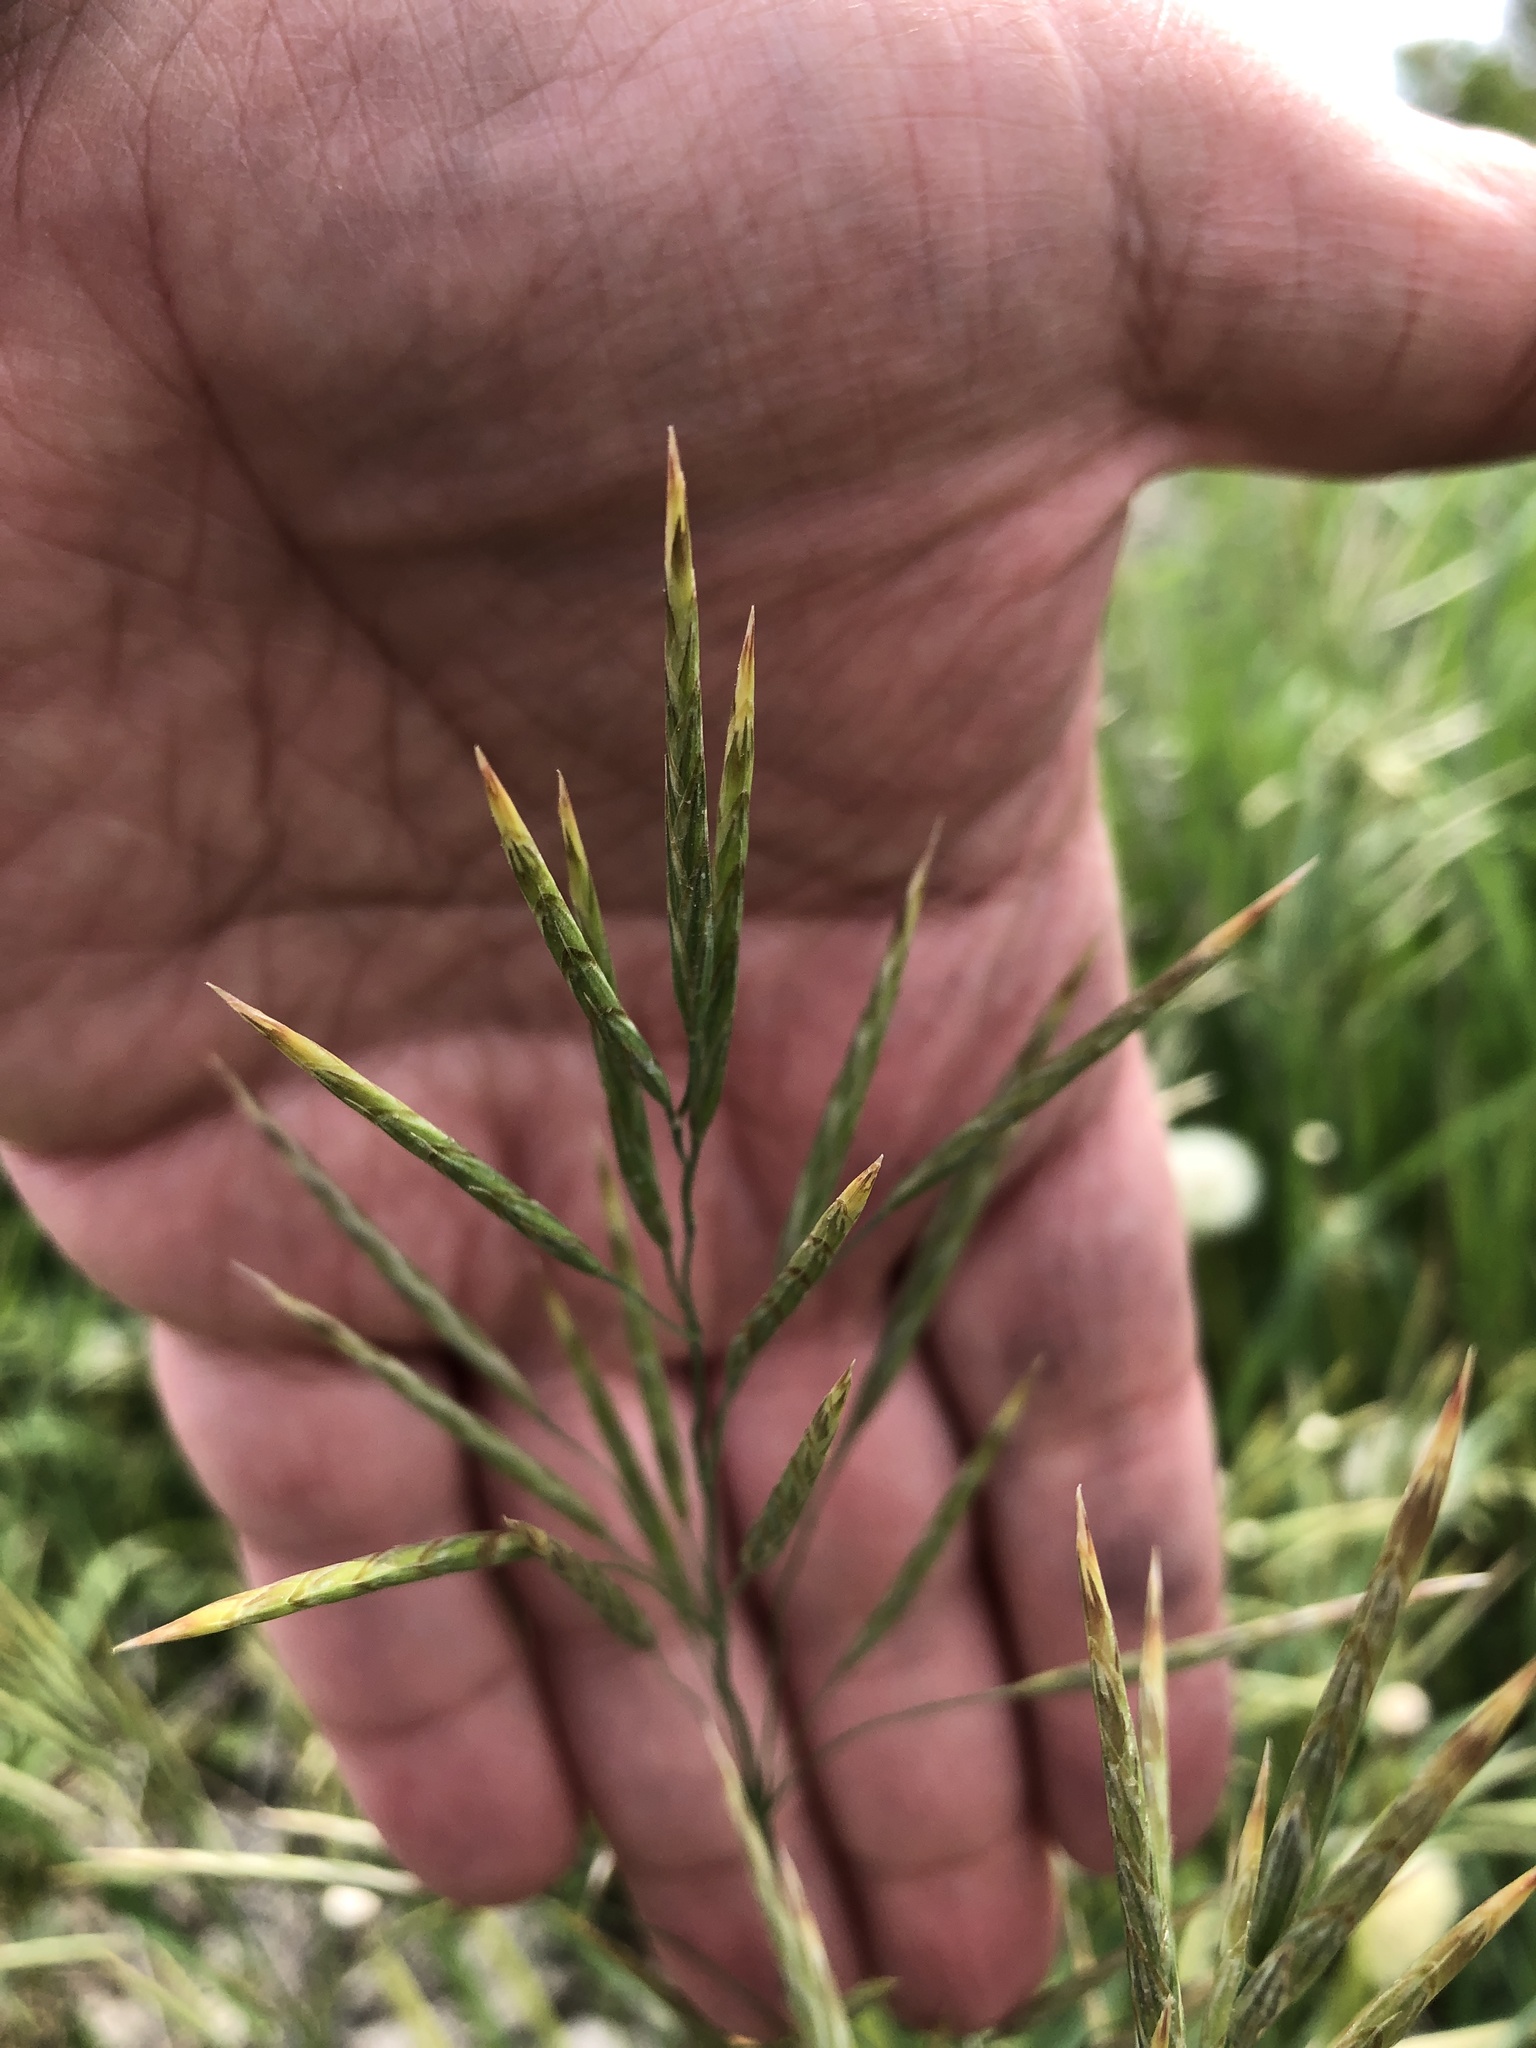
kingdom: Plantae
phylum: Tracheophyta
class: Liliopsida
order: Poales
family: Poaceae
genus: Bromus
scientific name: Bromus inermis
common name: Smooth brome
